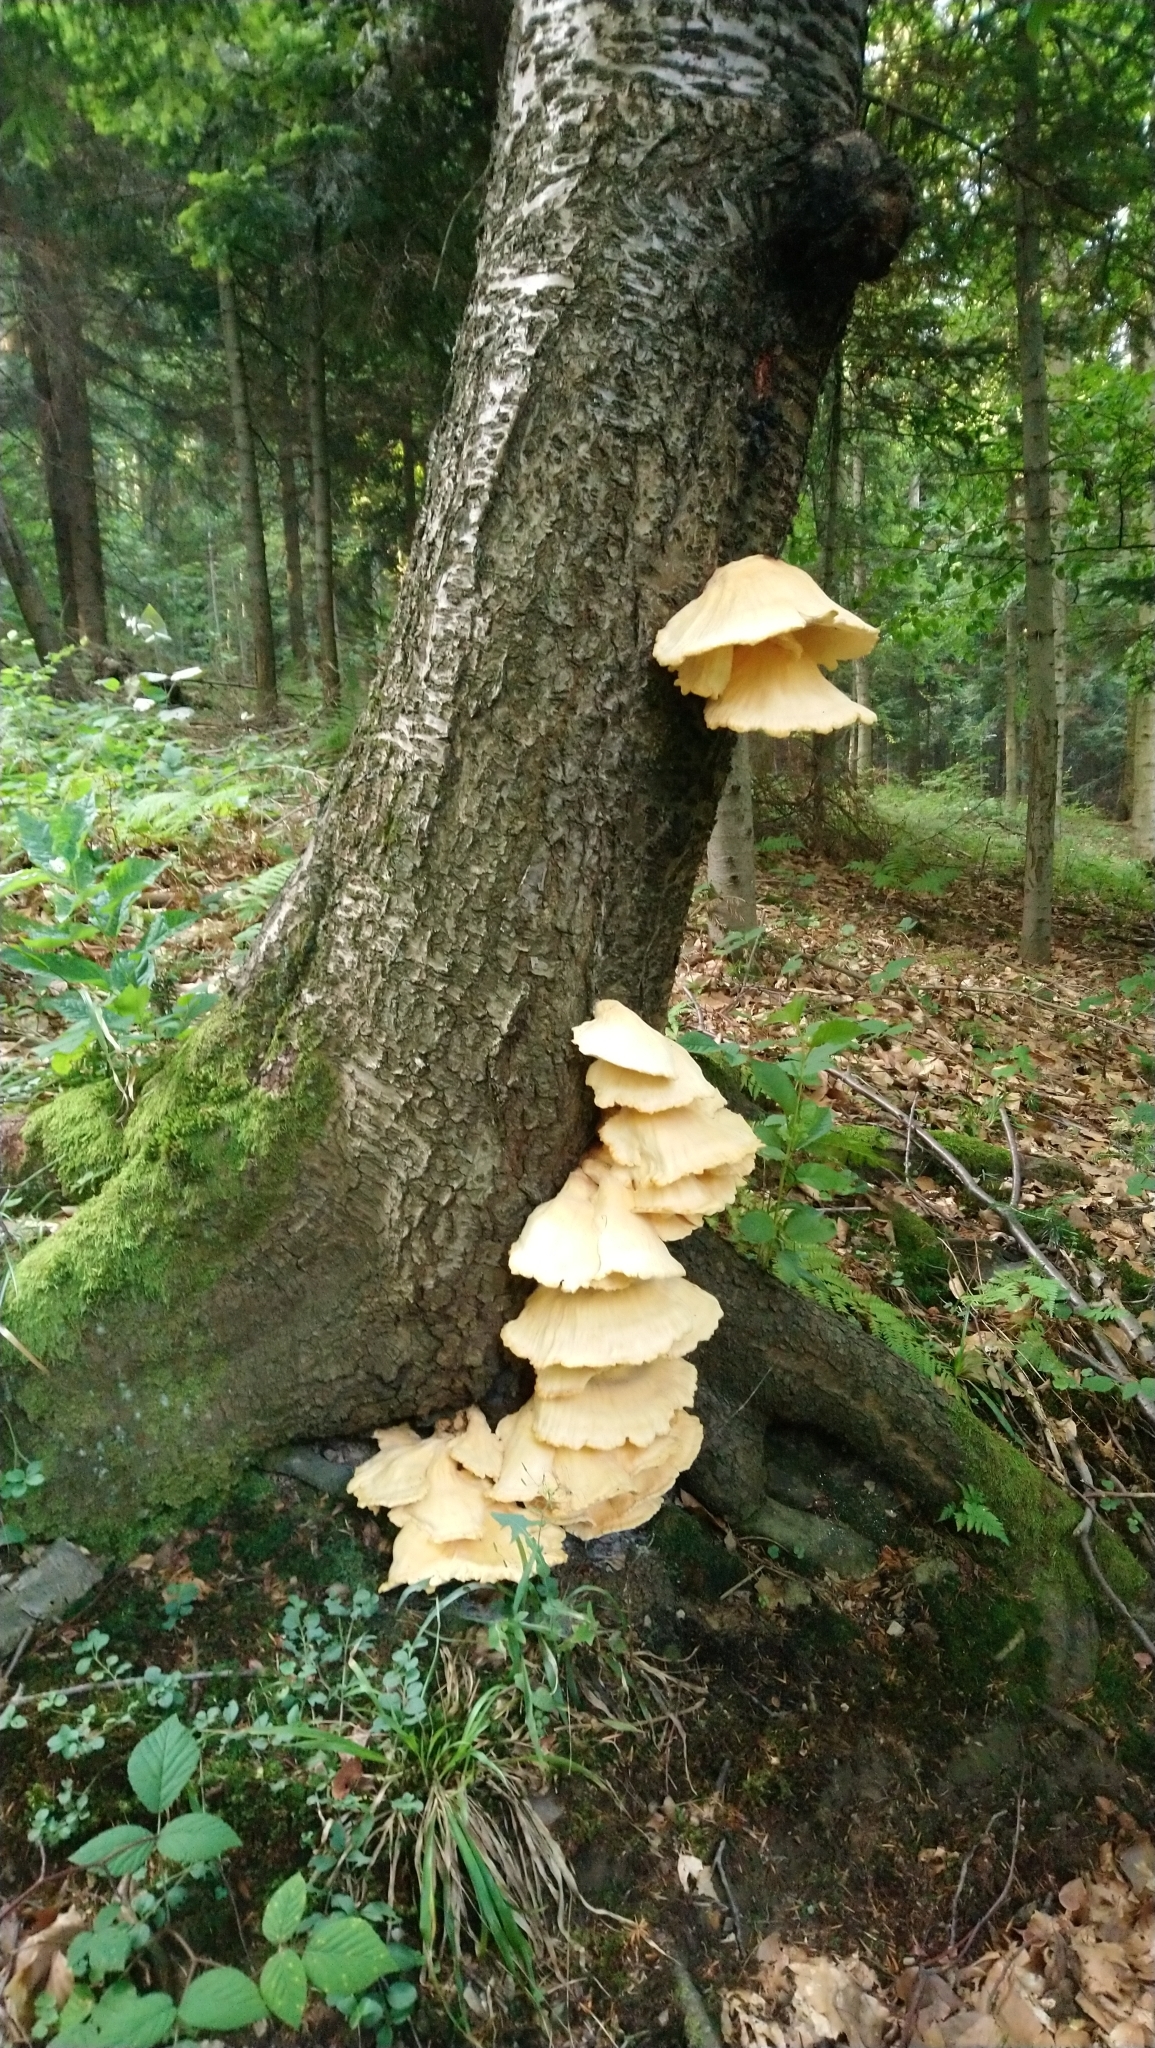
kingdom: Fungi
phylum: Basidiomycota
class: Agaricomycetes
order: Polyporales
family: Laetiporaceae
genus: Laetiporus
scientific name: Laetiporus sulphureus
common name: Chicken of the woods
